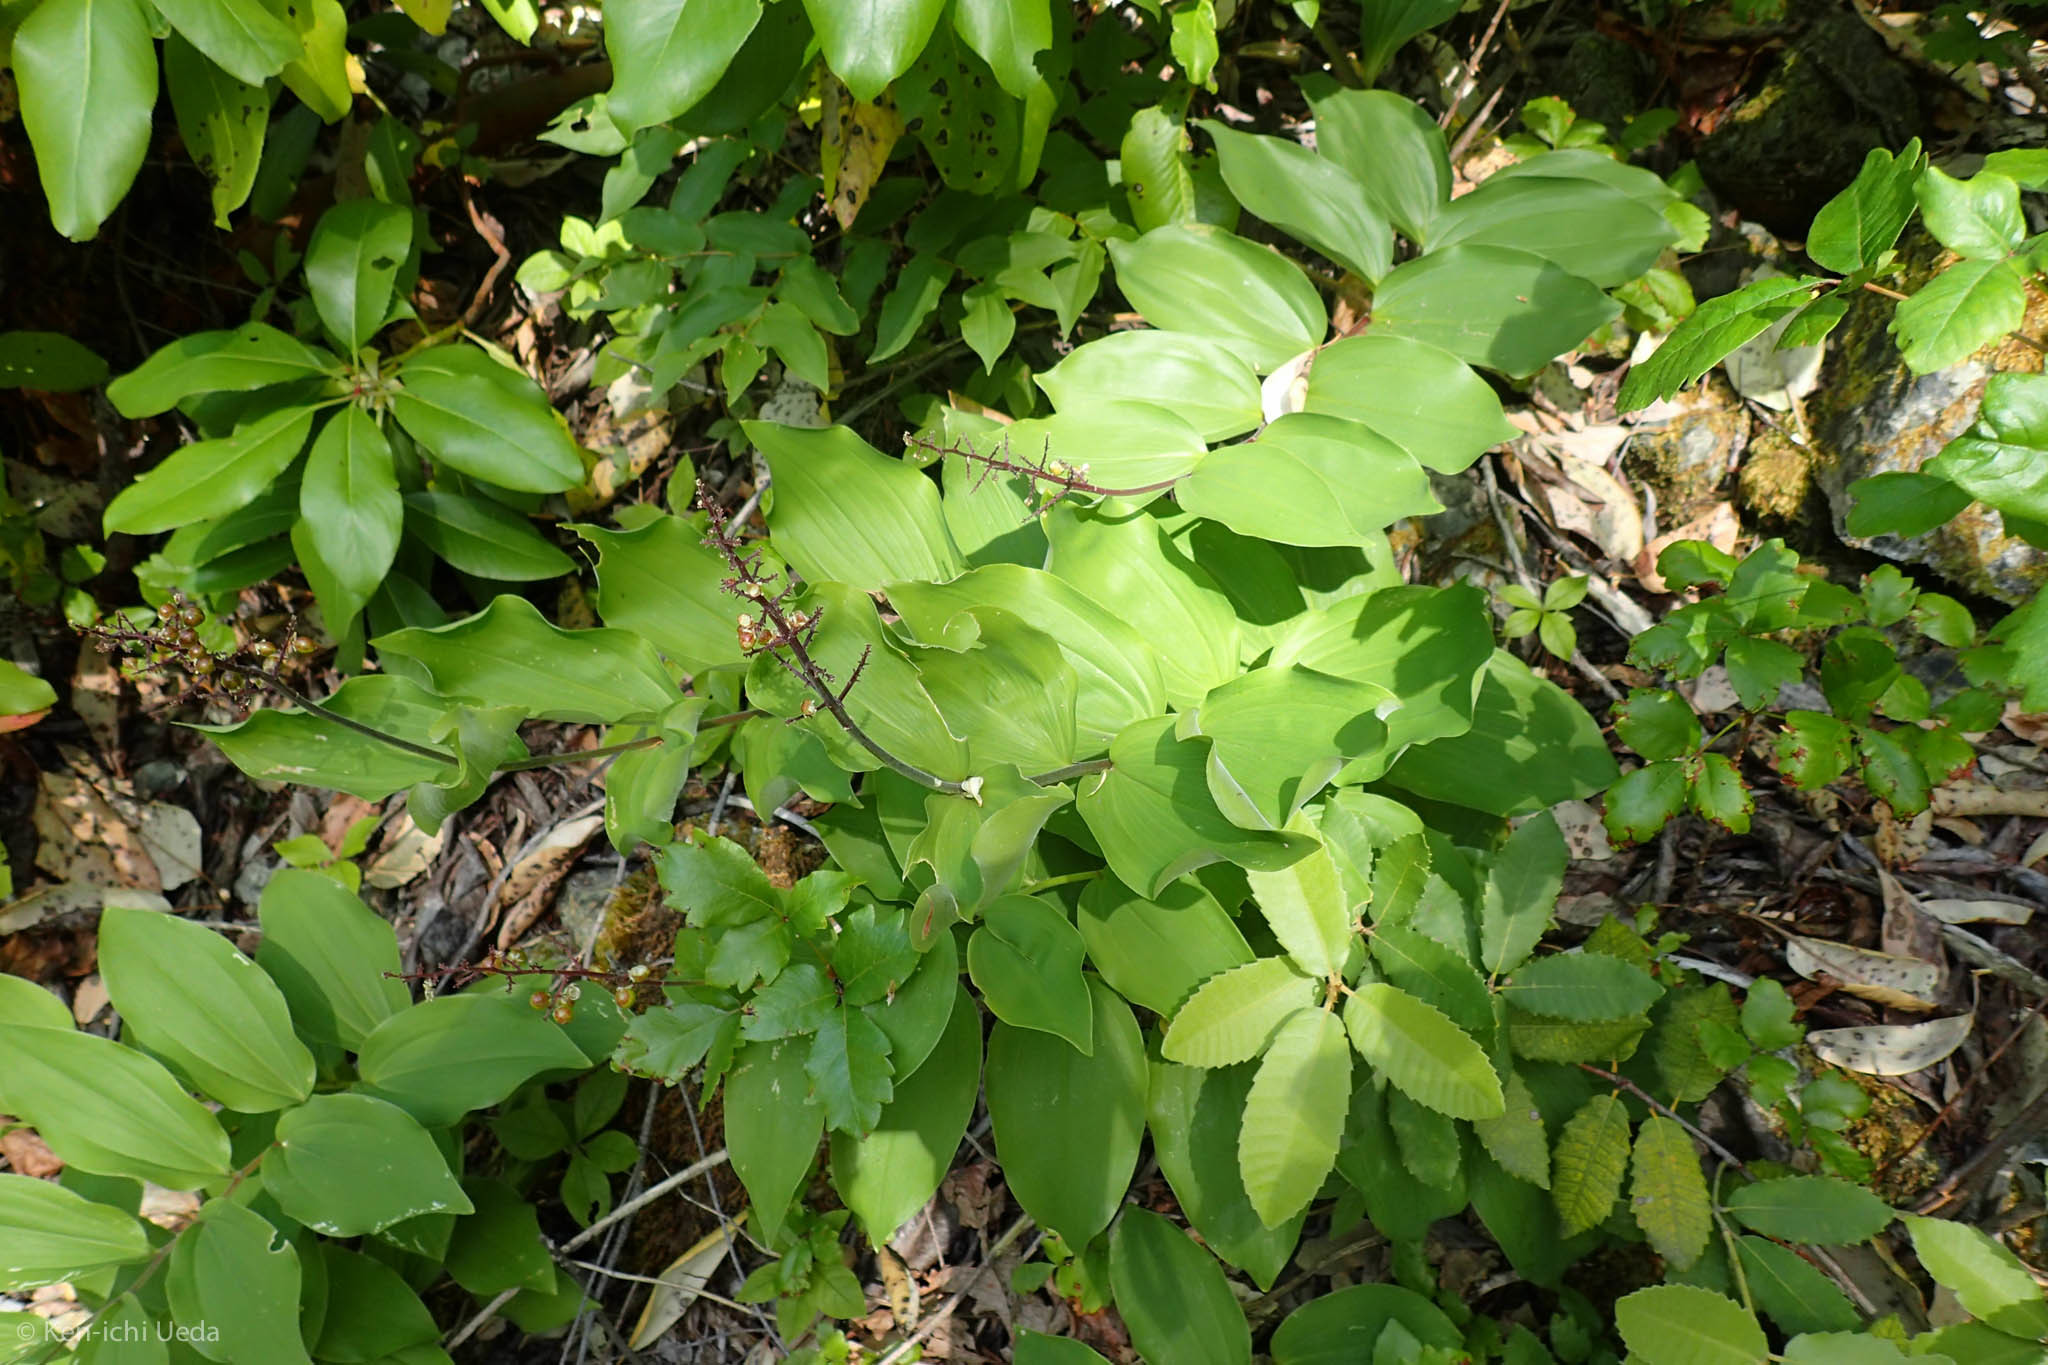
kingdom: Plantae
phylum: Tracheophyta
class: Liliopsida
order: Asparagales
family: Asparagaceae
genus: Maianthemum
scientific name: Maianthemum racemosum
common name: False spikenard
